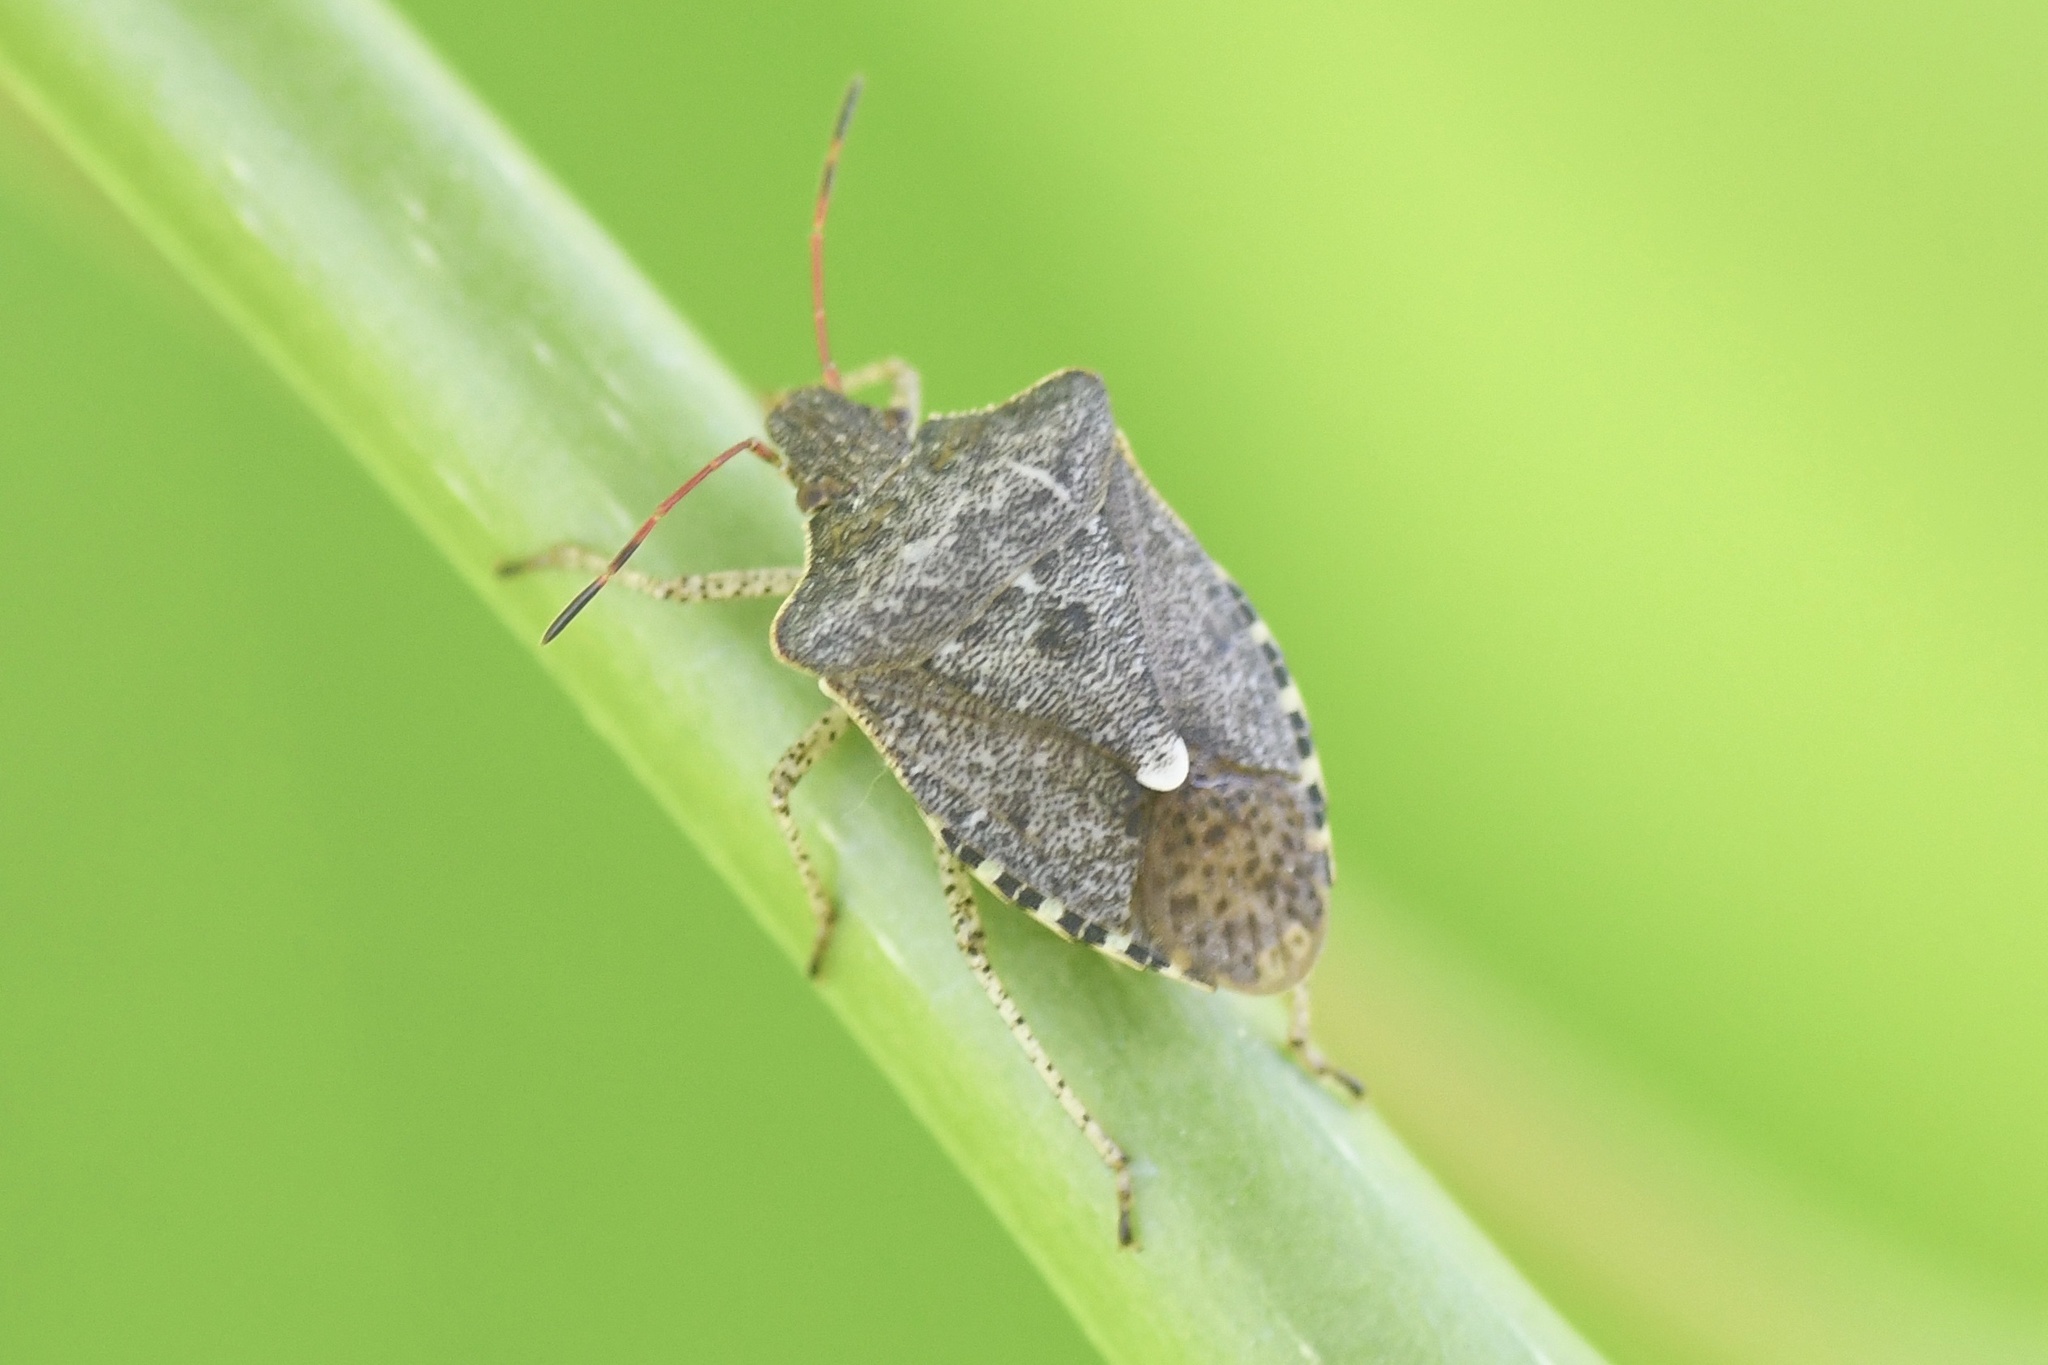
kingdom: Animalia
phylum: Arthropoda
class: Insecta
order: Hemiptera
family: Pentatomidae
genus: Euschistus
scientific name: Euschistus tristigmus
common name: Dusky stink bug
